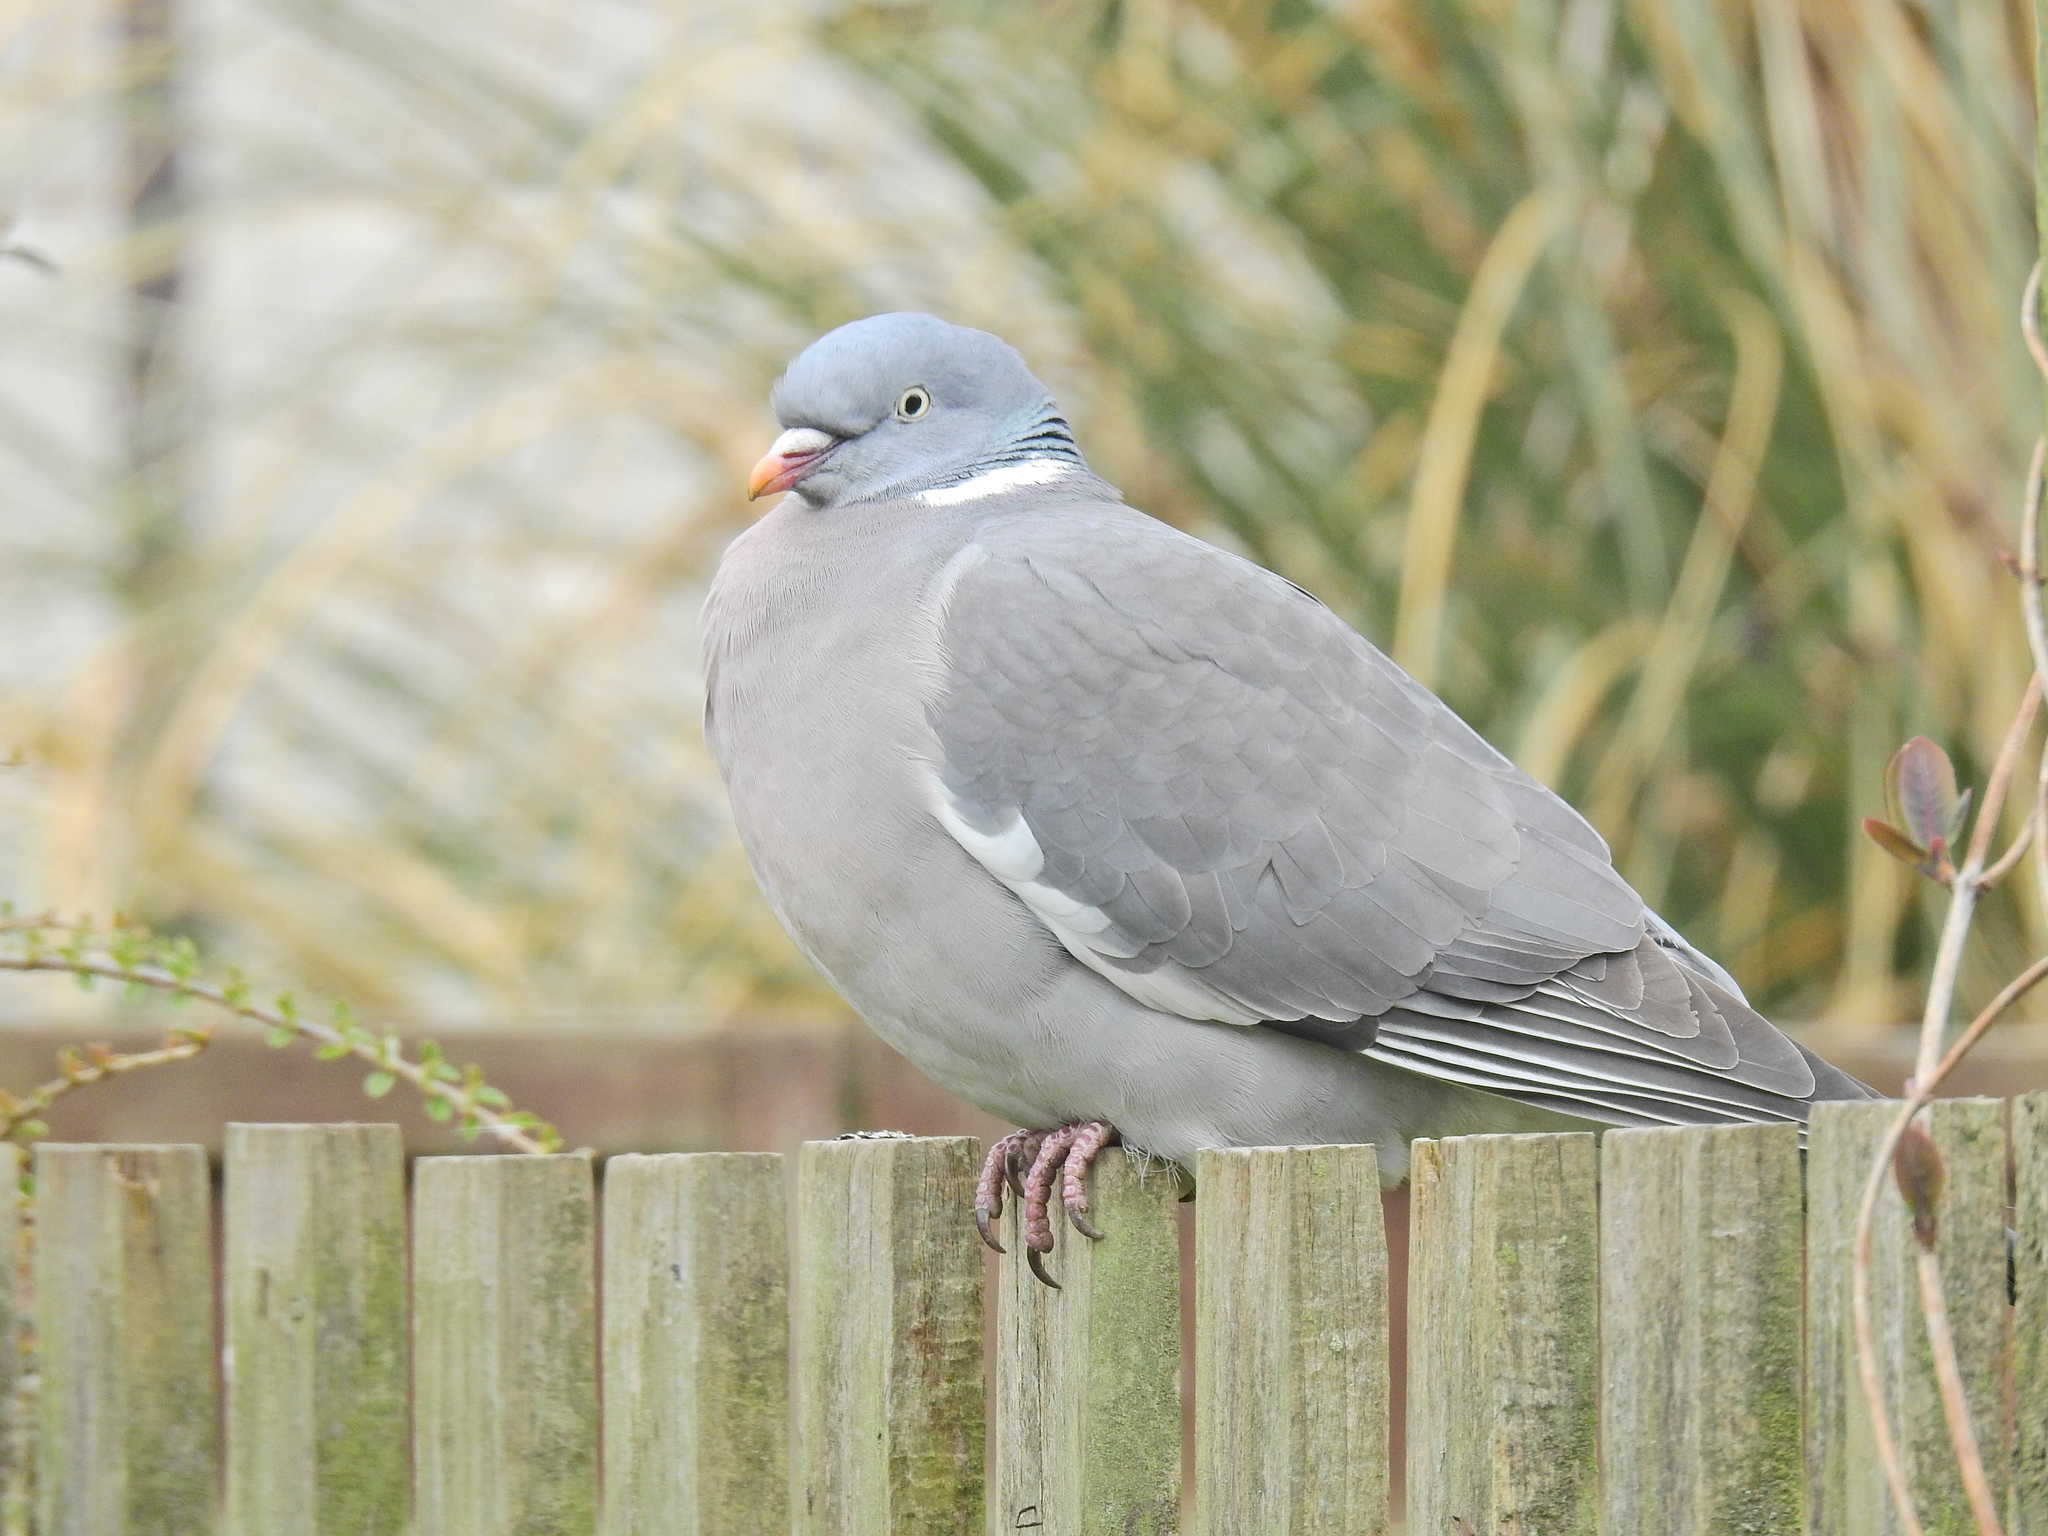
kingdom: Animalia
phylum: Chordata
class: Aves
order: Columbiformes
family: Columbidae
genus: Columba
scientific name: Columba palumbus
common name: Common wood pigeon
